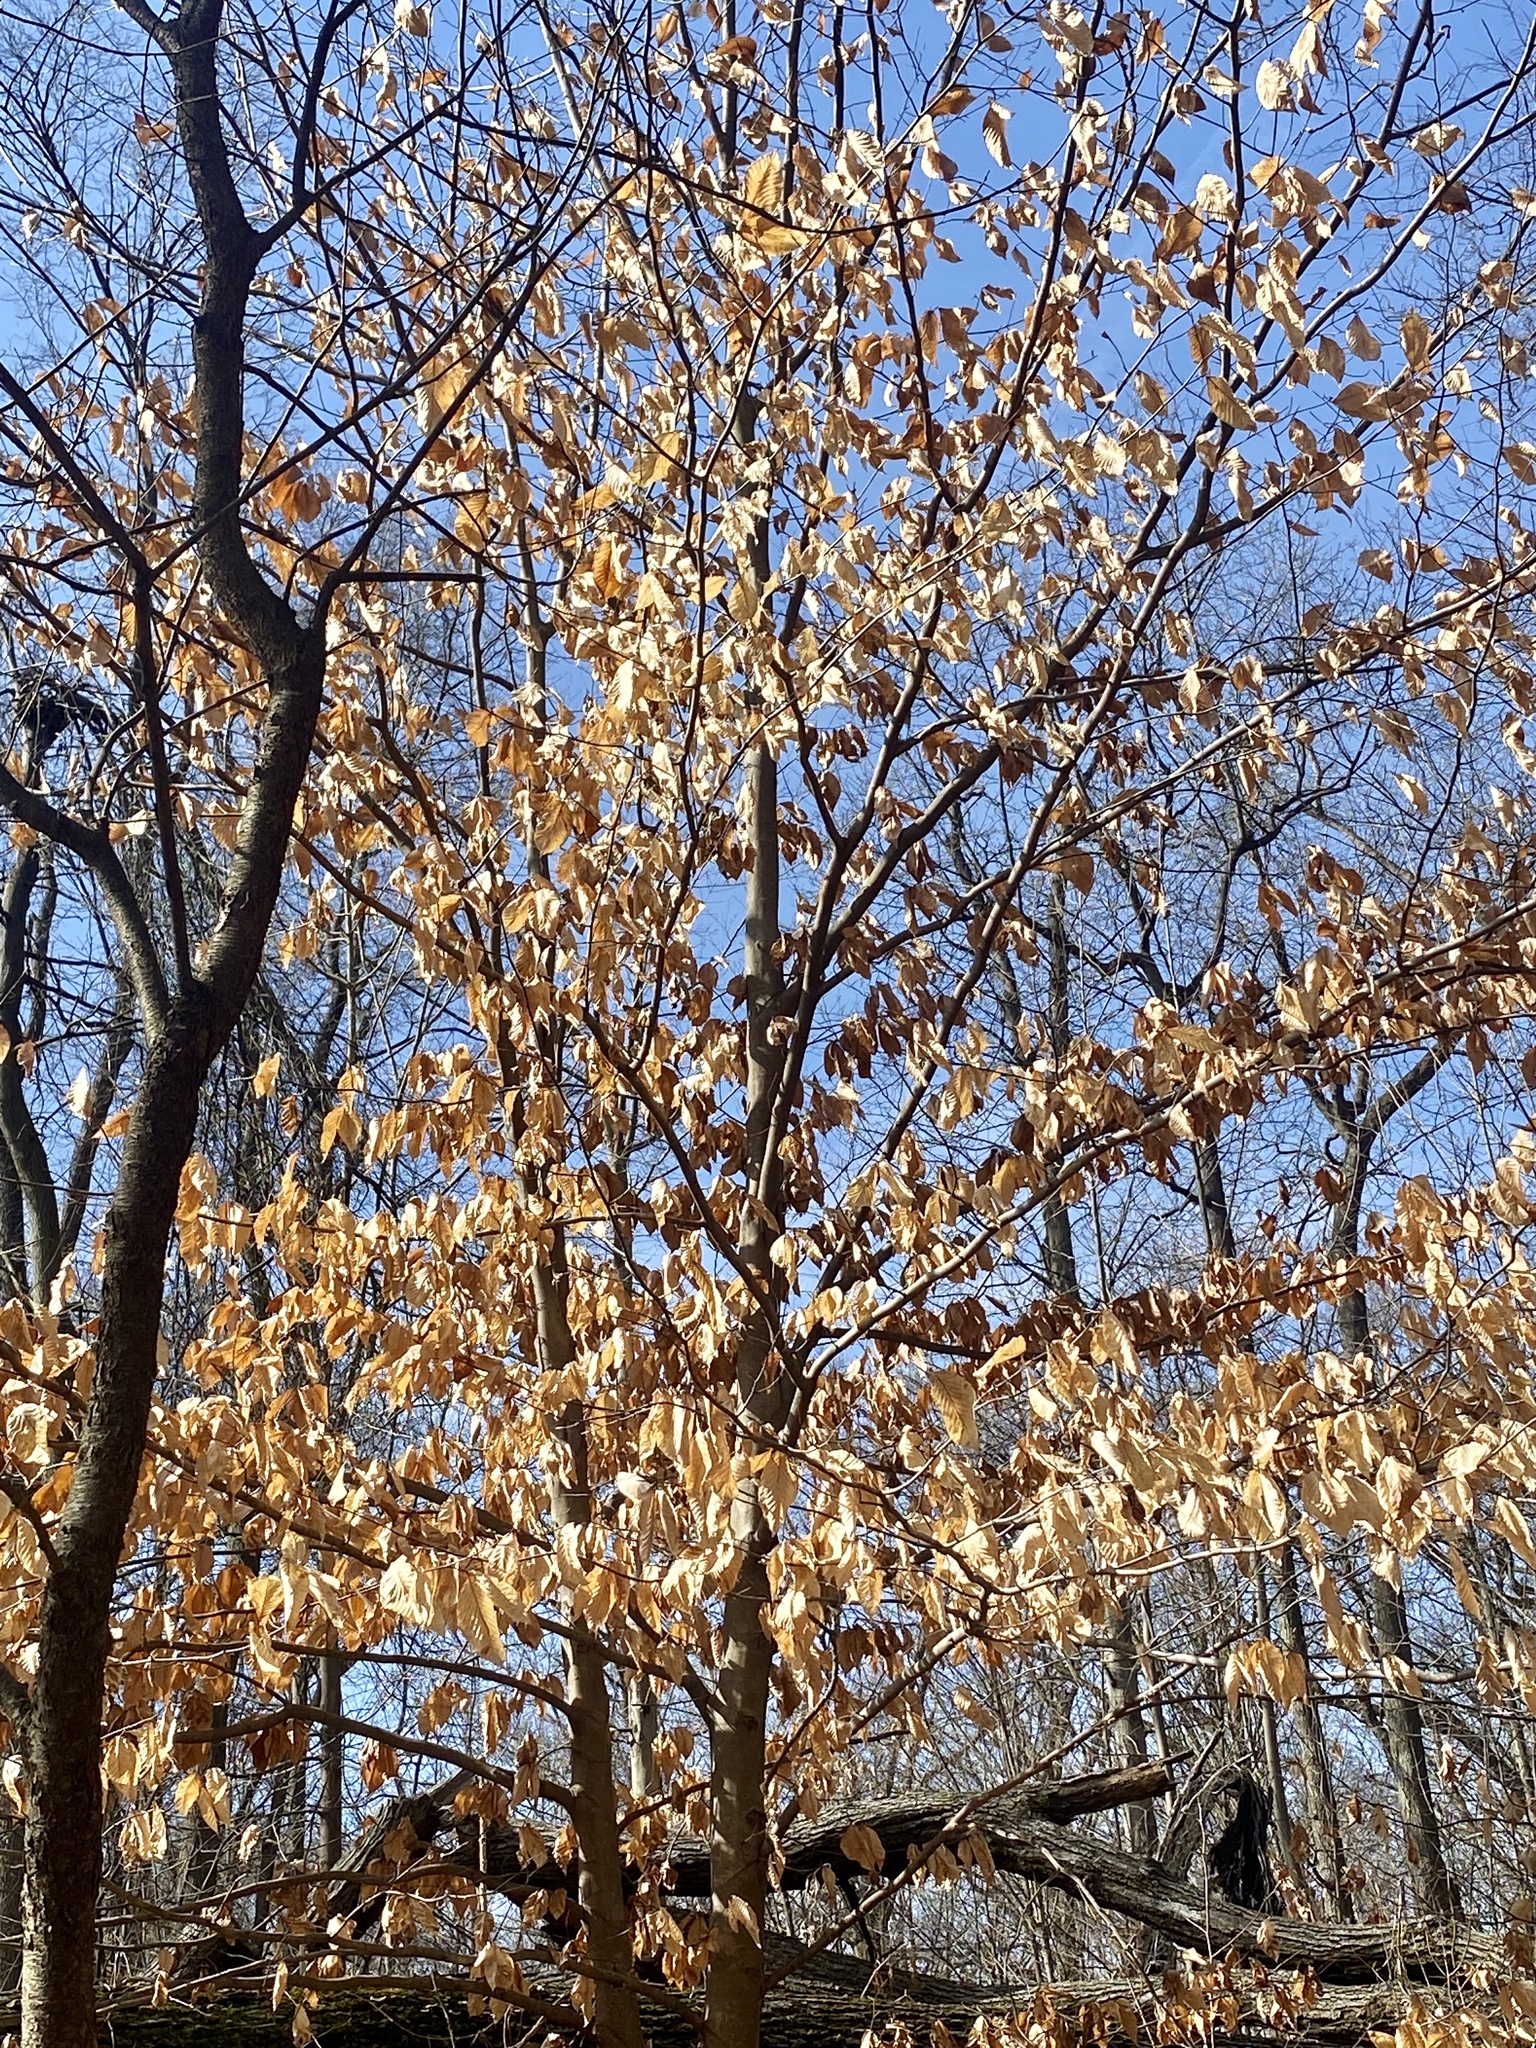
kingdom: Plantae
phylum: Tracheophyta
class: Magnoliopsida
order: Fagales
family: Fagaceae
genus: Fagus
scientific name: Fagus grandifolia
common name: American beech
